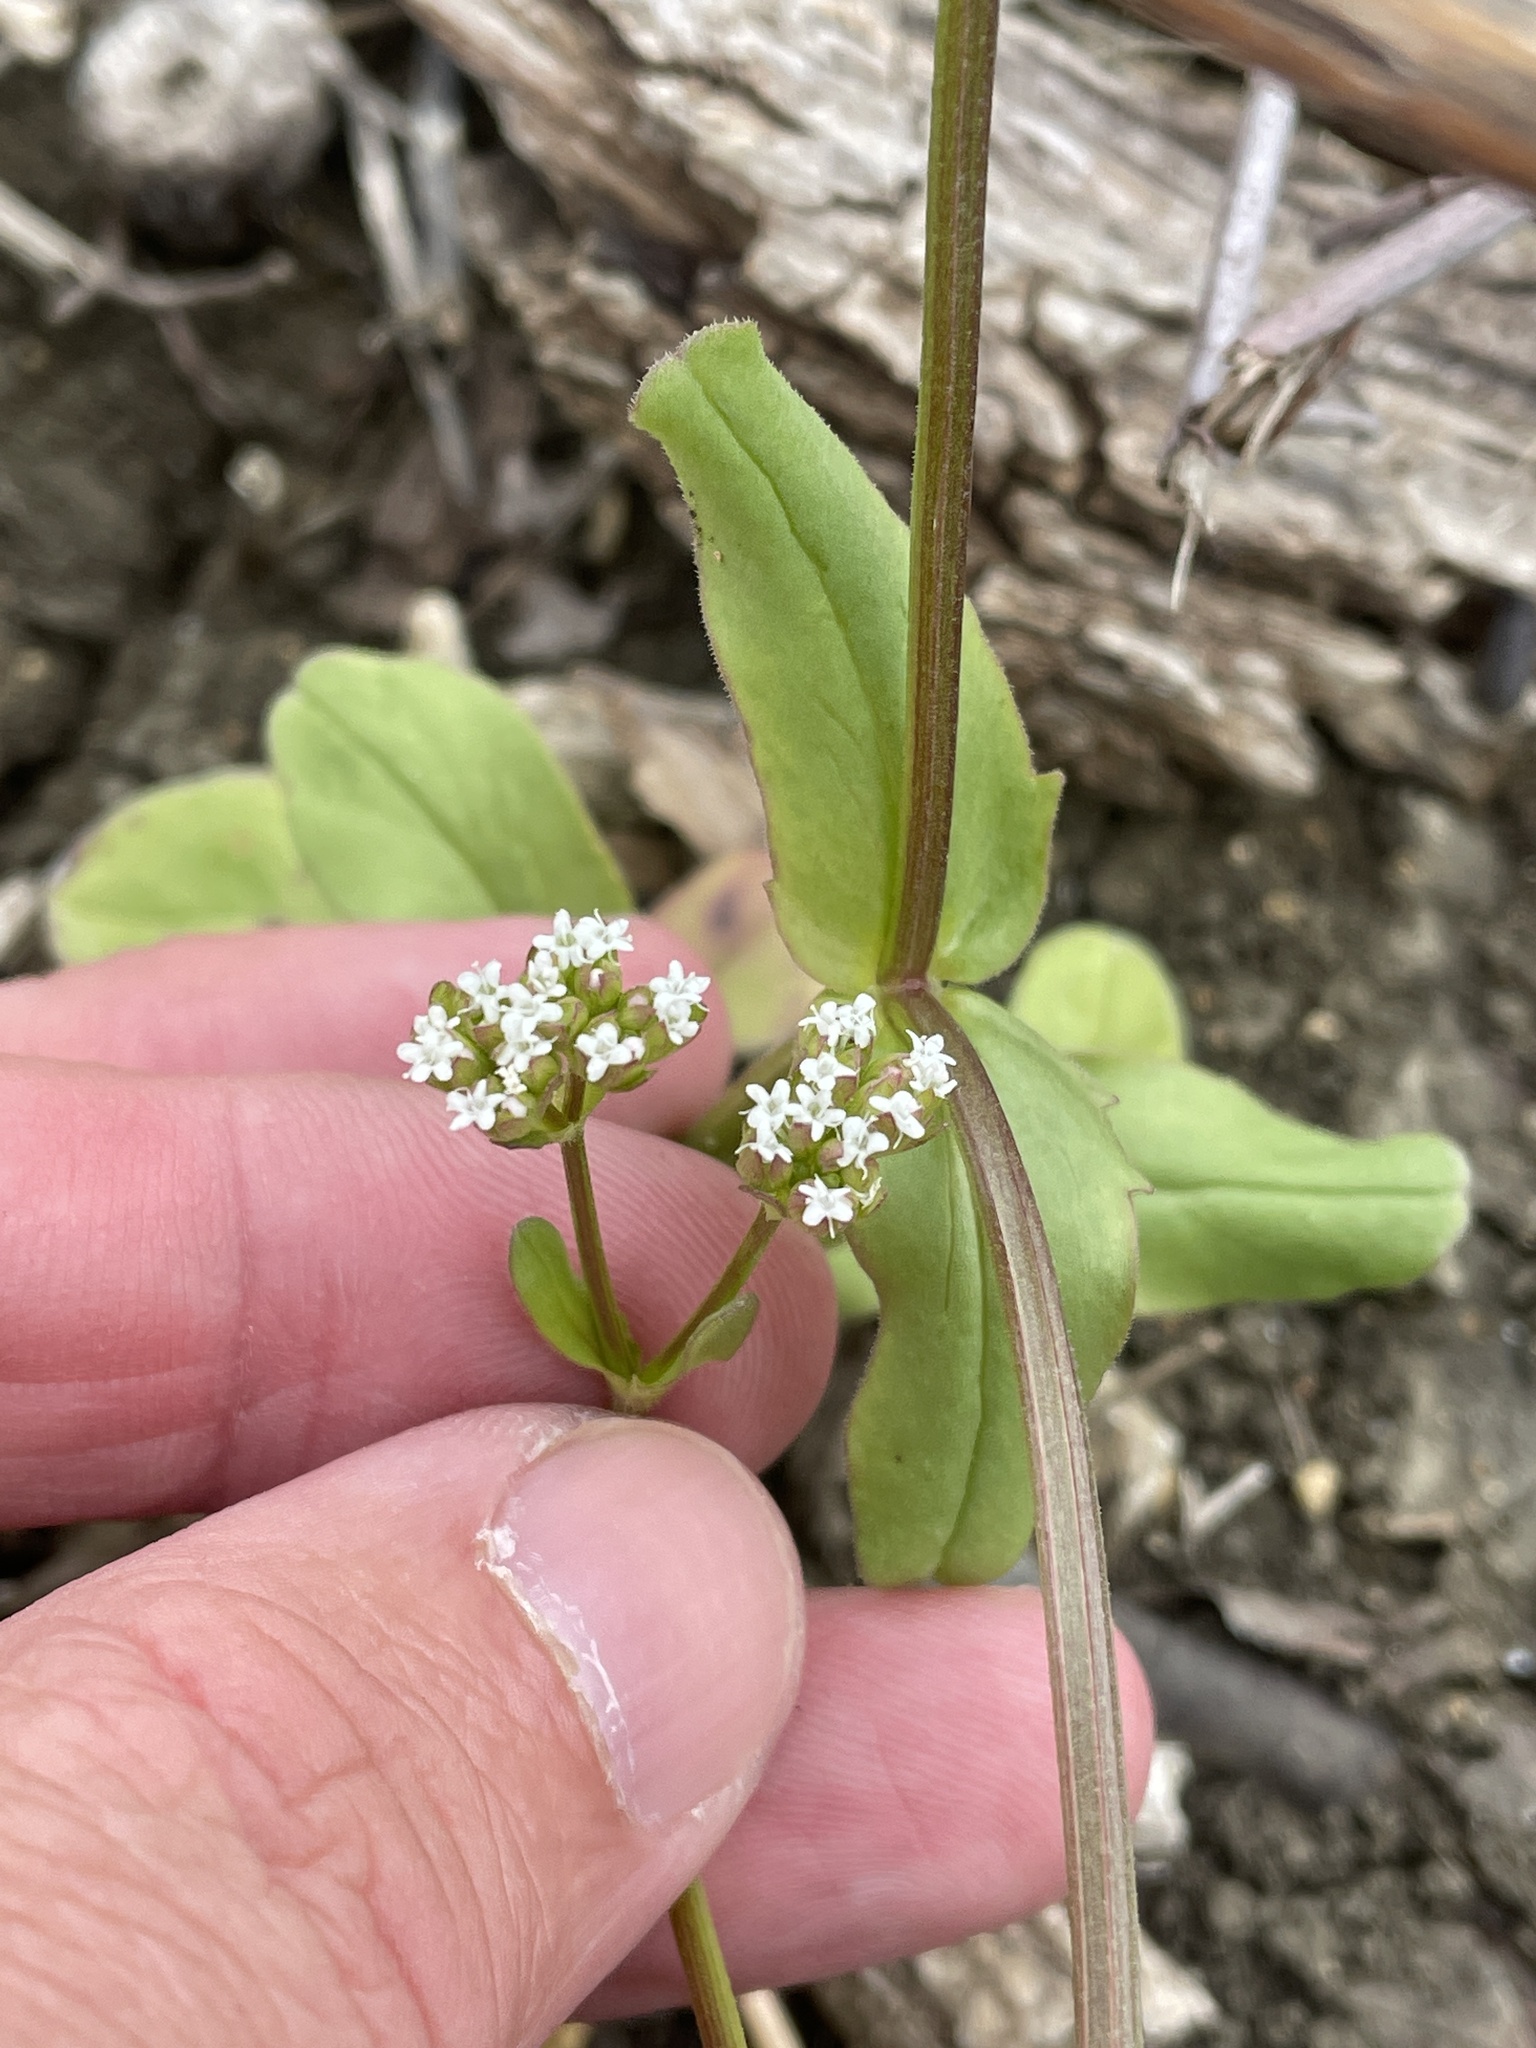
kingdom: Plantae
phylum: Tracheophyta
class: Magnoliopsida
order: Dipsacales
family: Caprifoliaceae
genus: Valerianella
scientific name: Valerianella radiata
